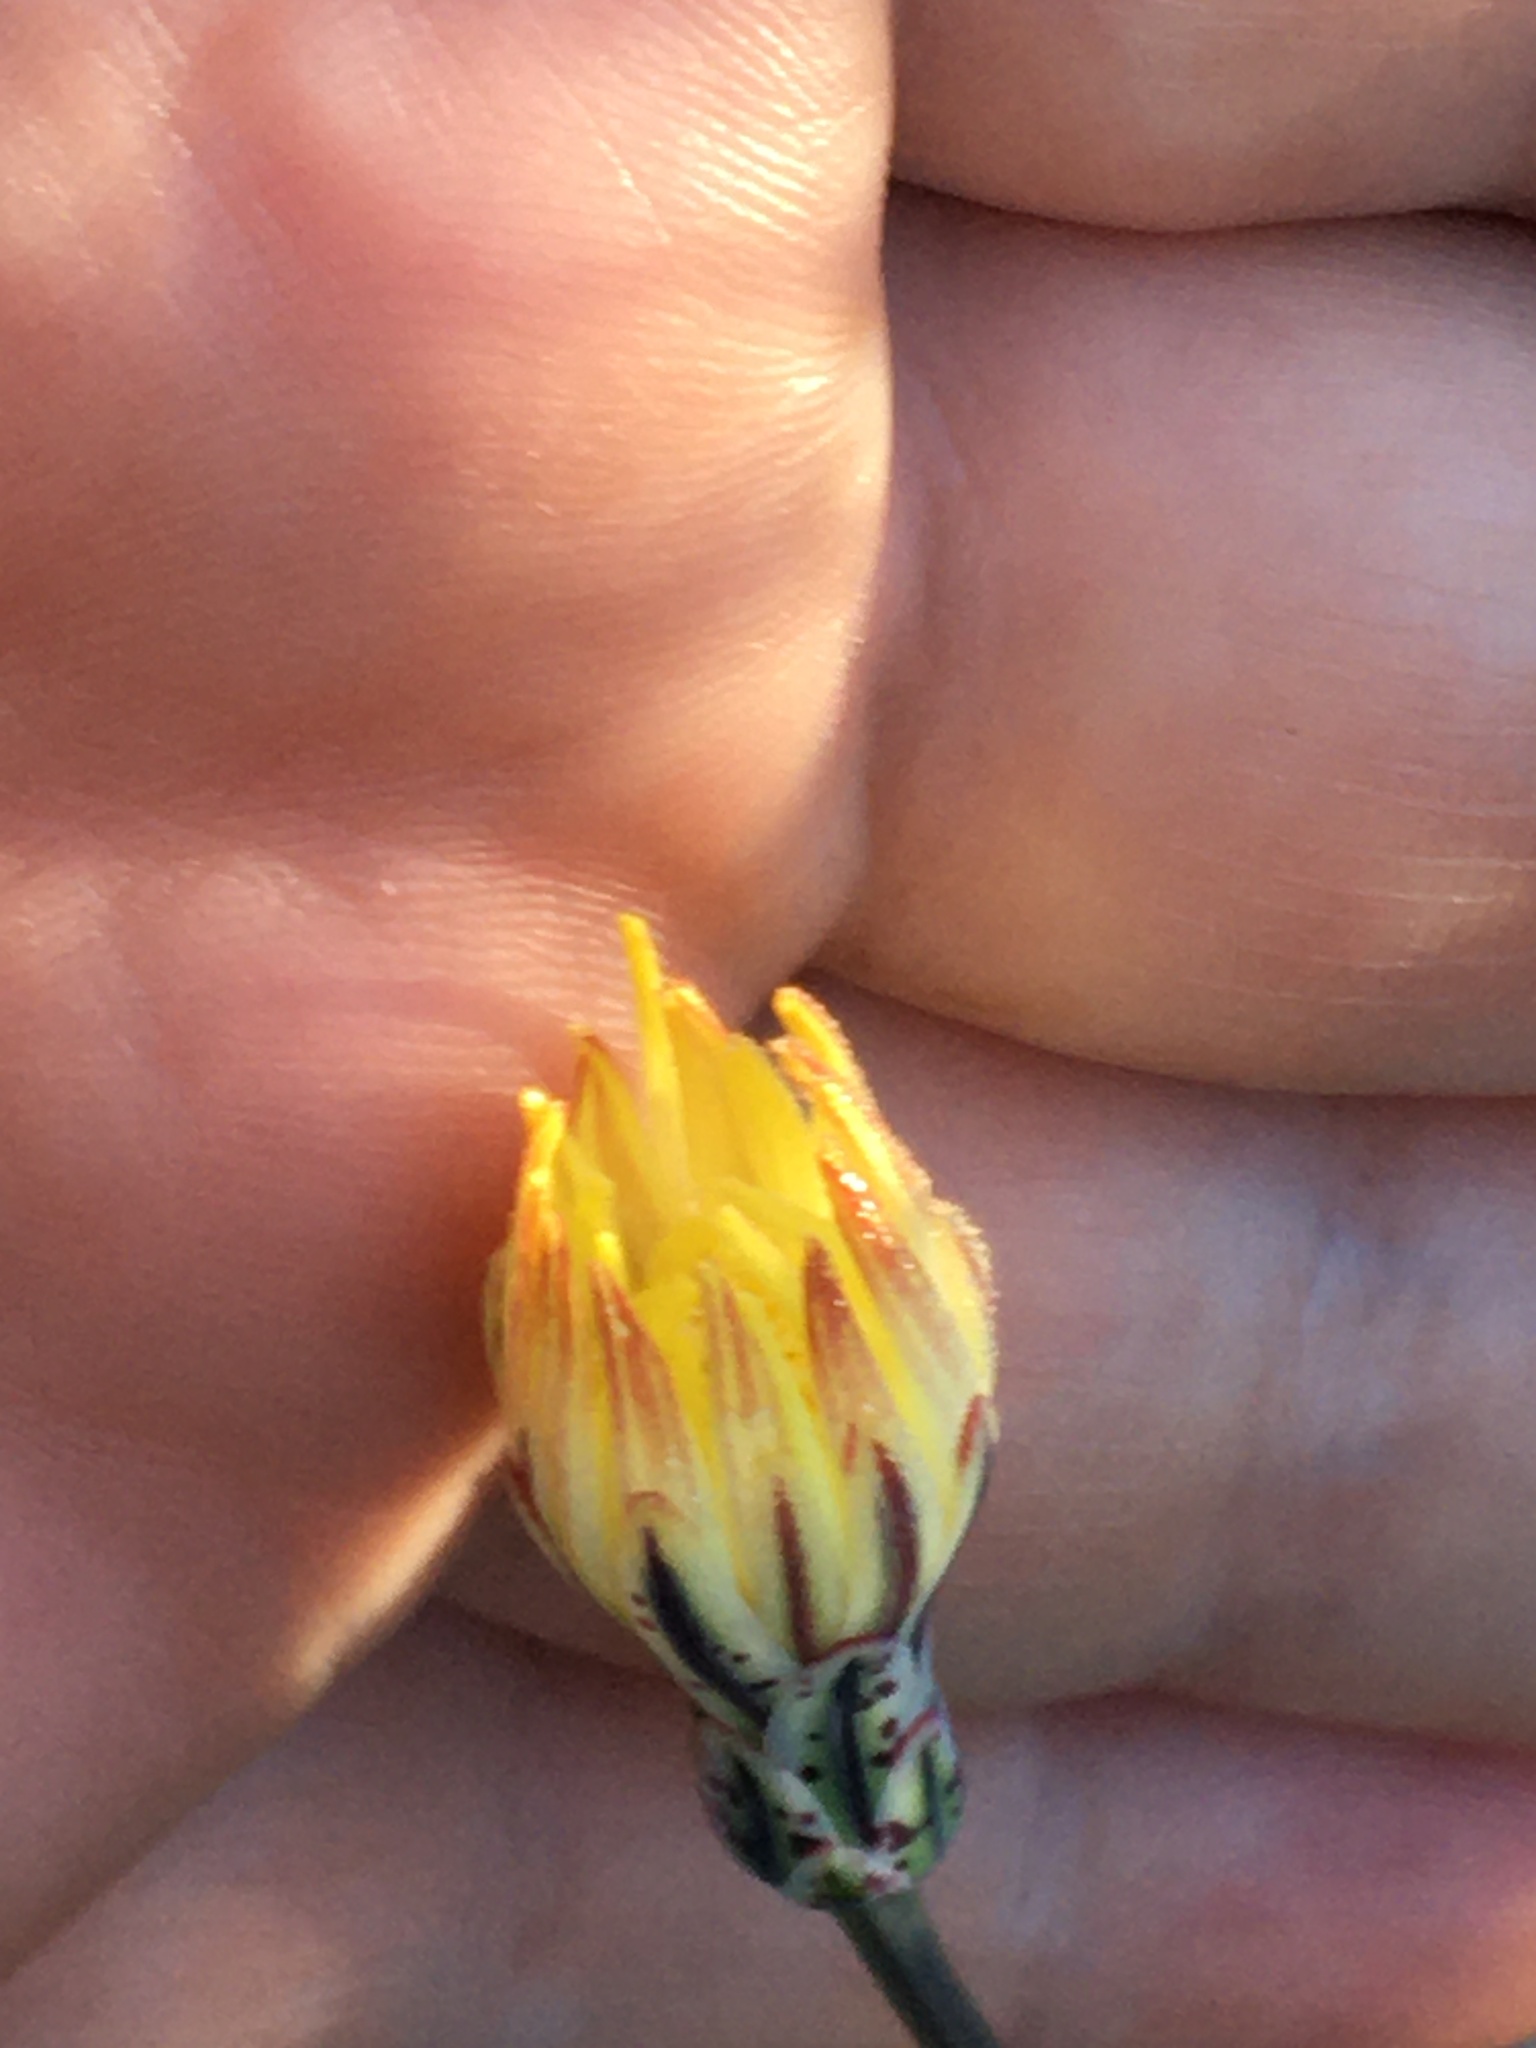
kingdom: Plantae
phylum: Tracheophyta
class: Magnoliopsida
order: Asterales
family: Asteraceae
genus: Anisocoma
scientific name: Anisocoma acaulis
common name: Scalebud
